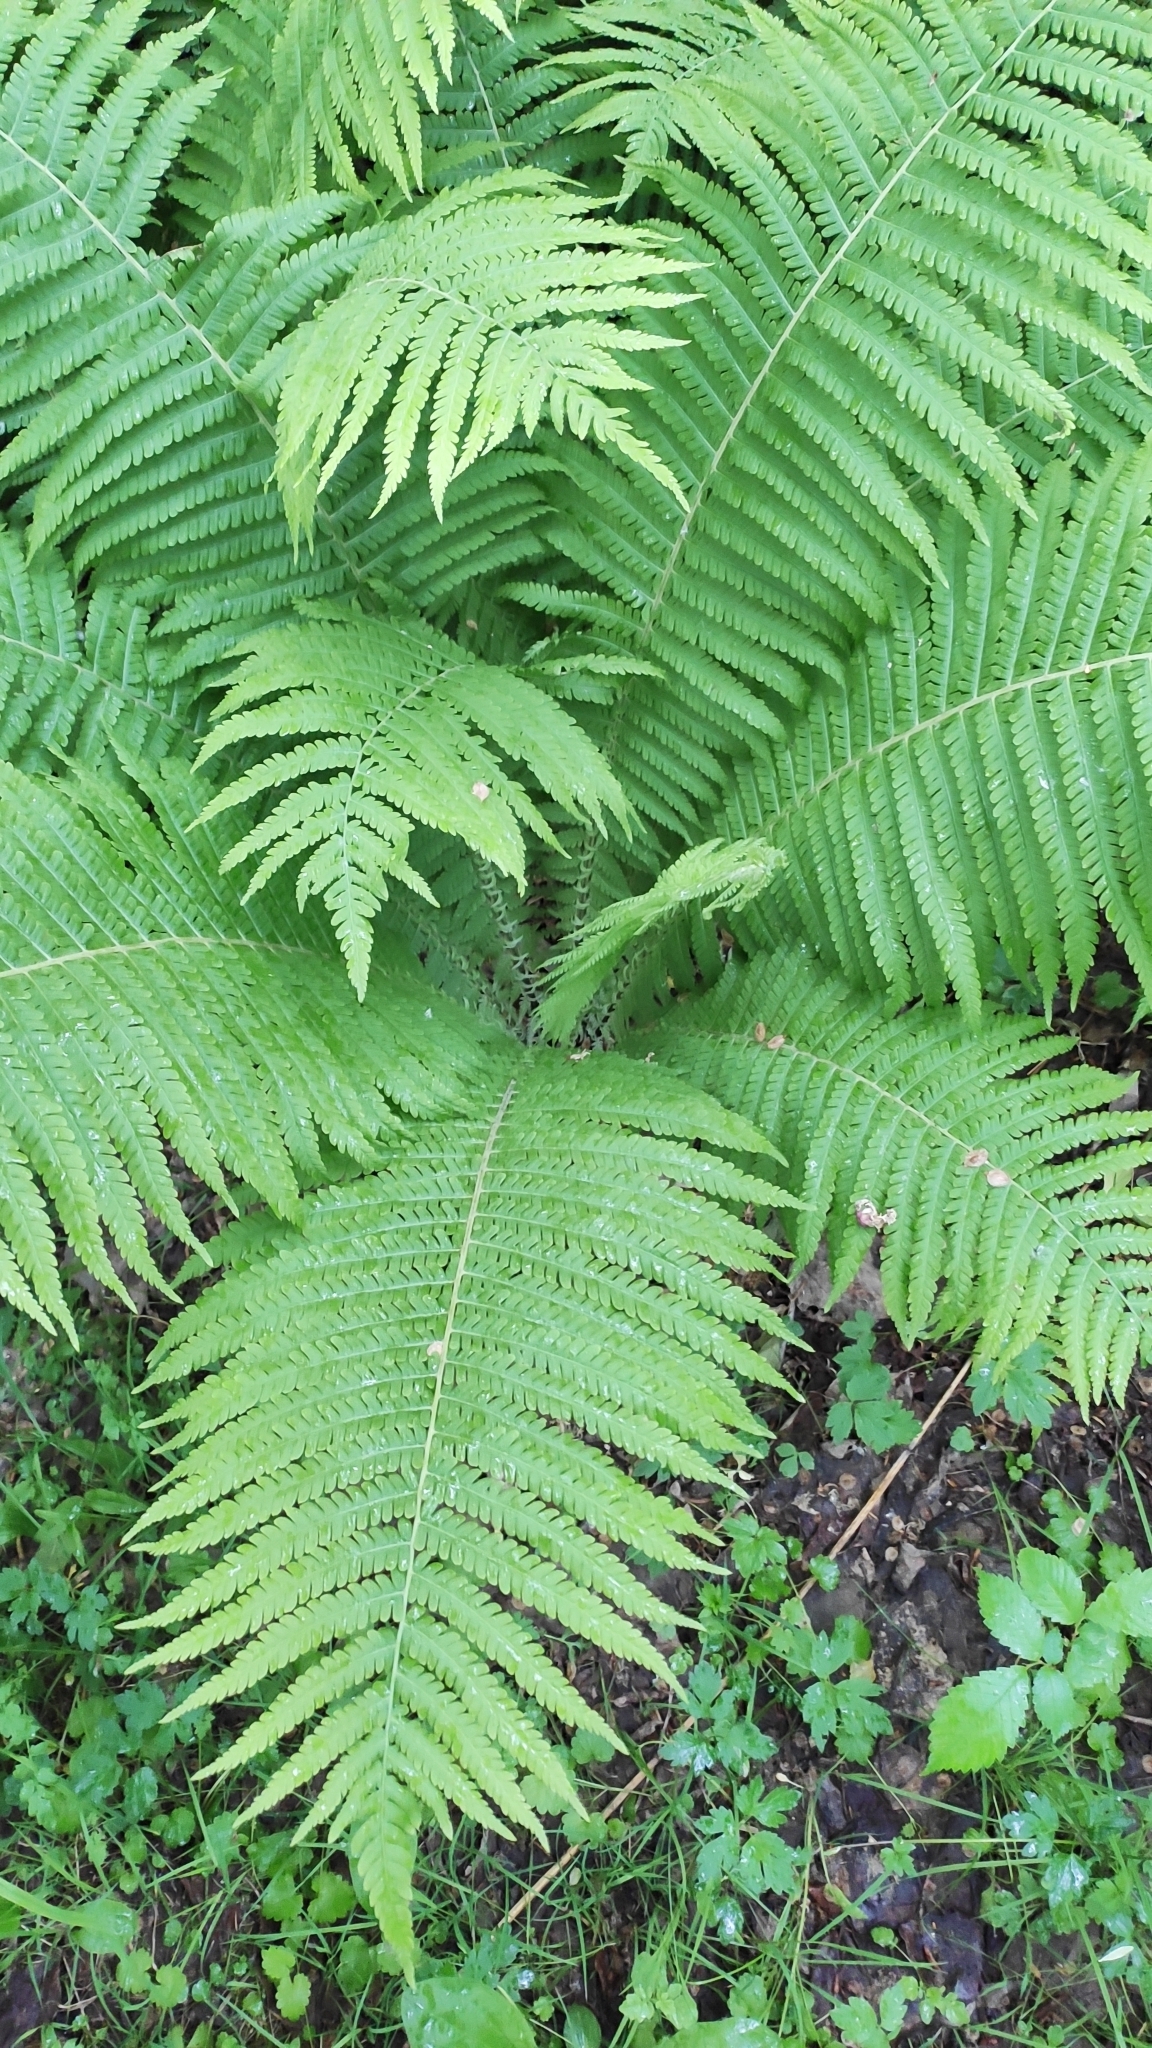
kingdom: Plantae
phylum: Tracheophyta
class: Polypodiopsida
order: Polypodiales
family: Onocleaceae
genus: Matteuccia
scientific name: Matteuccia struthiopteris
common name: Ostrich fern
